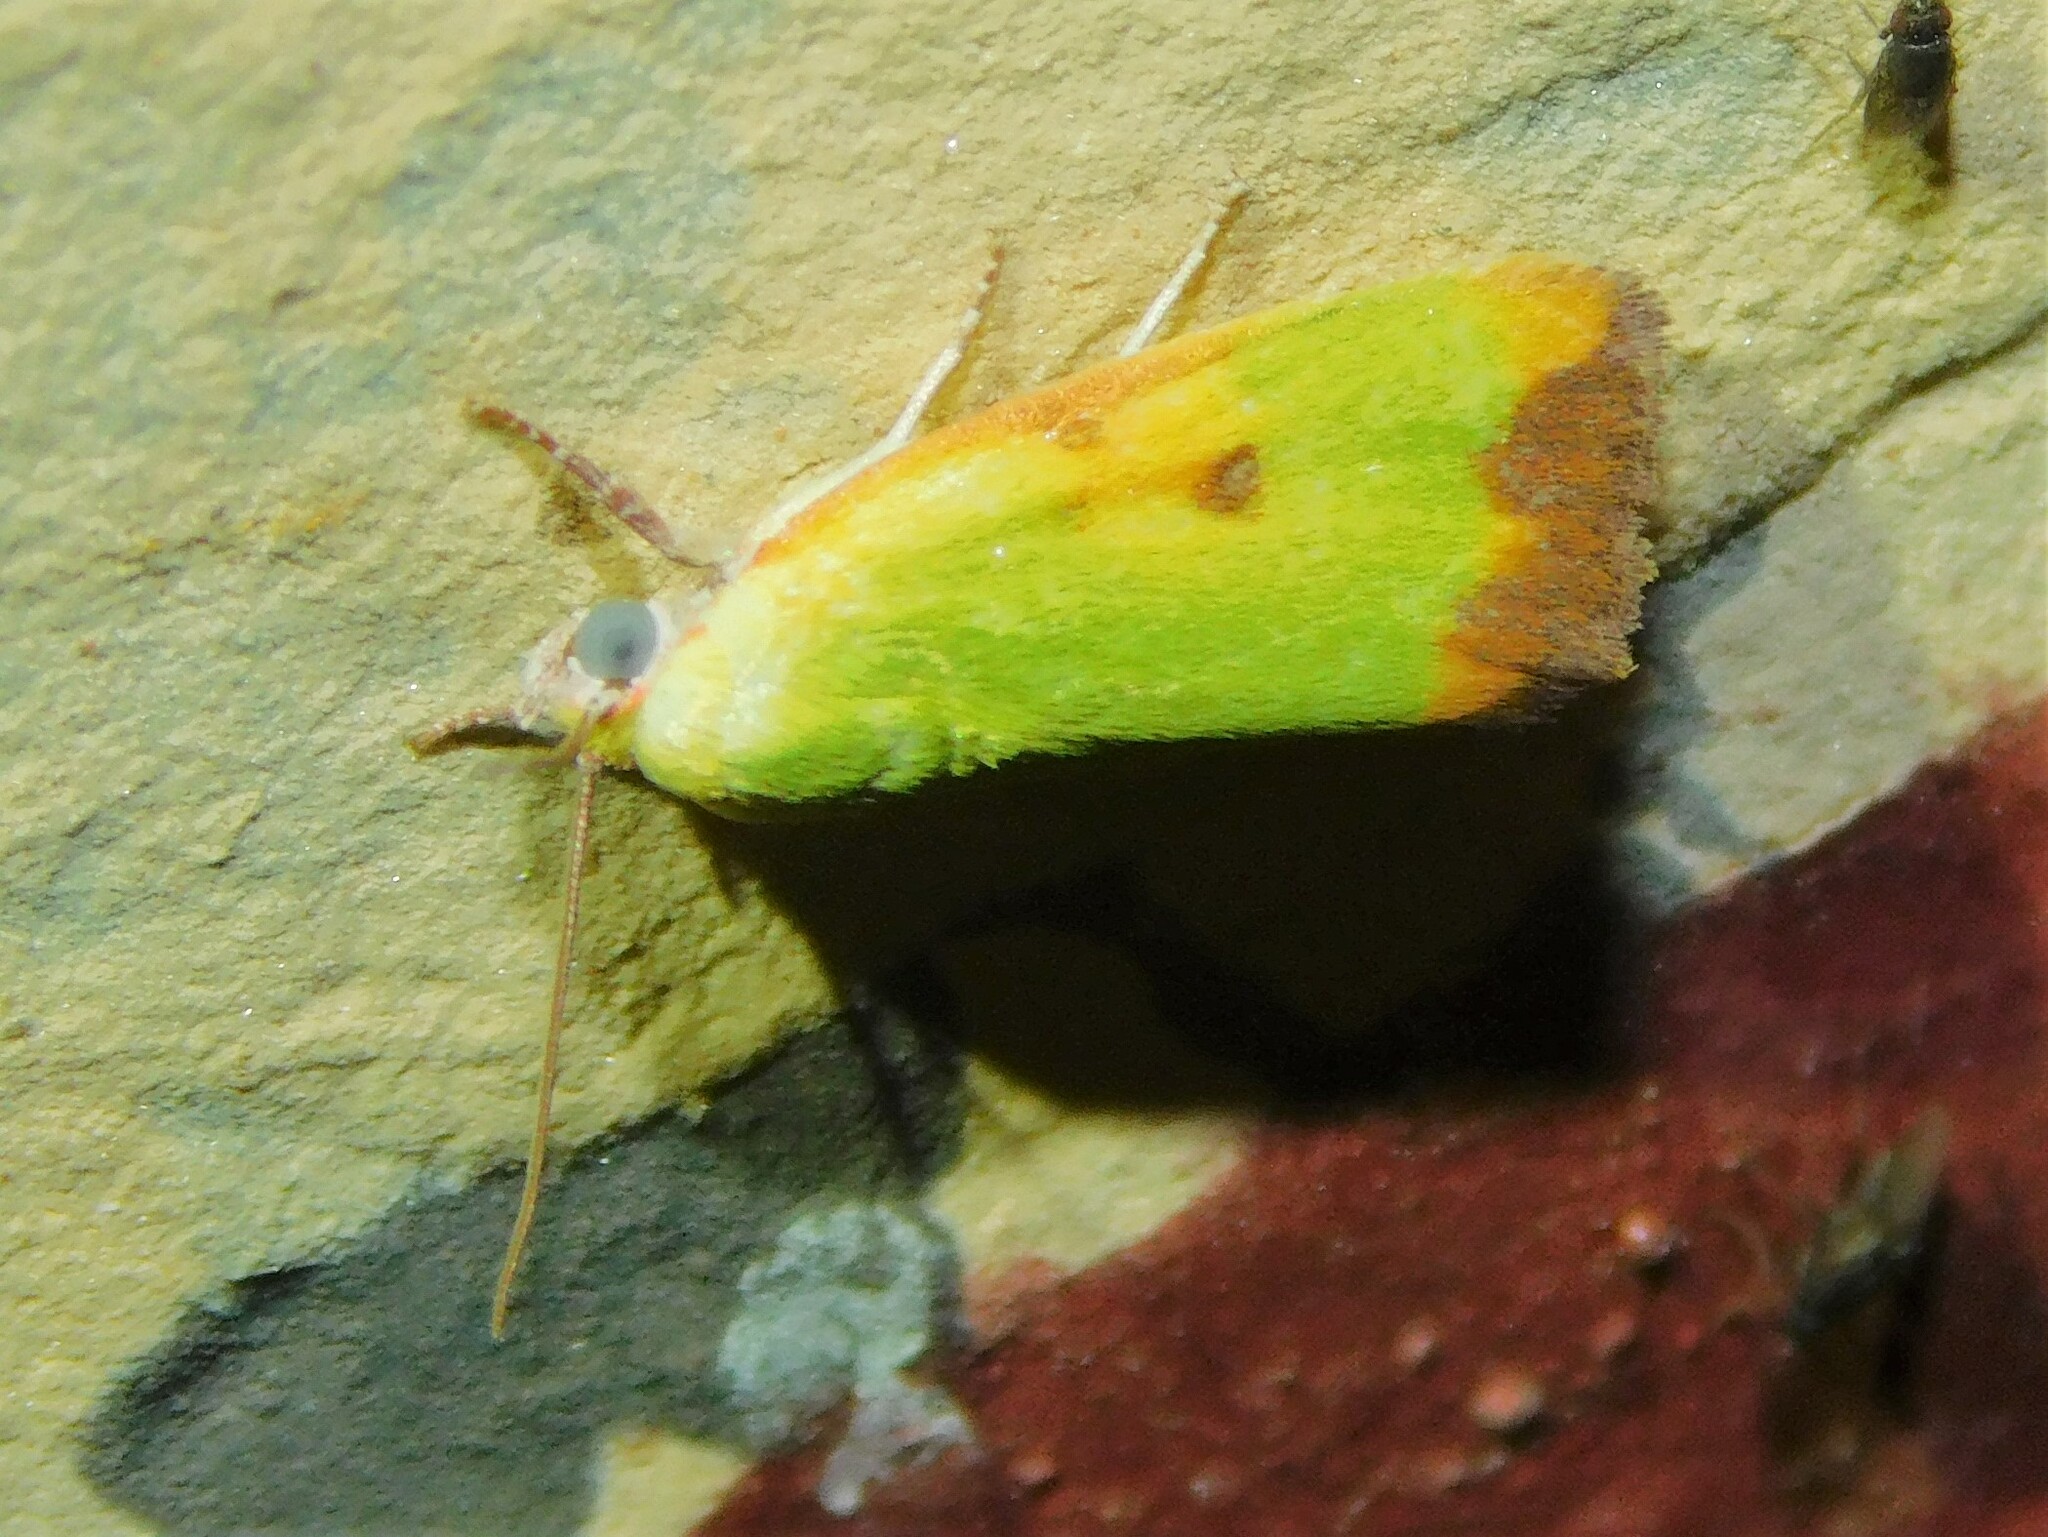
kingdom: Animalia
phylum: Arthropoda
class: Insecta
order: Lepidoptera
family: Nolidae
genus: Earias
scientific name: Earias cupreoviridis
